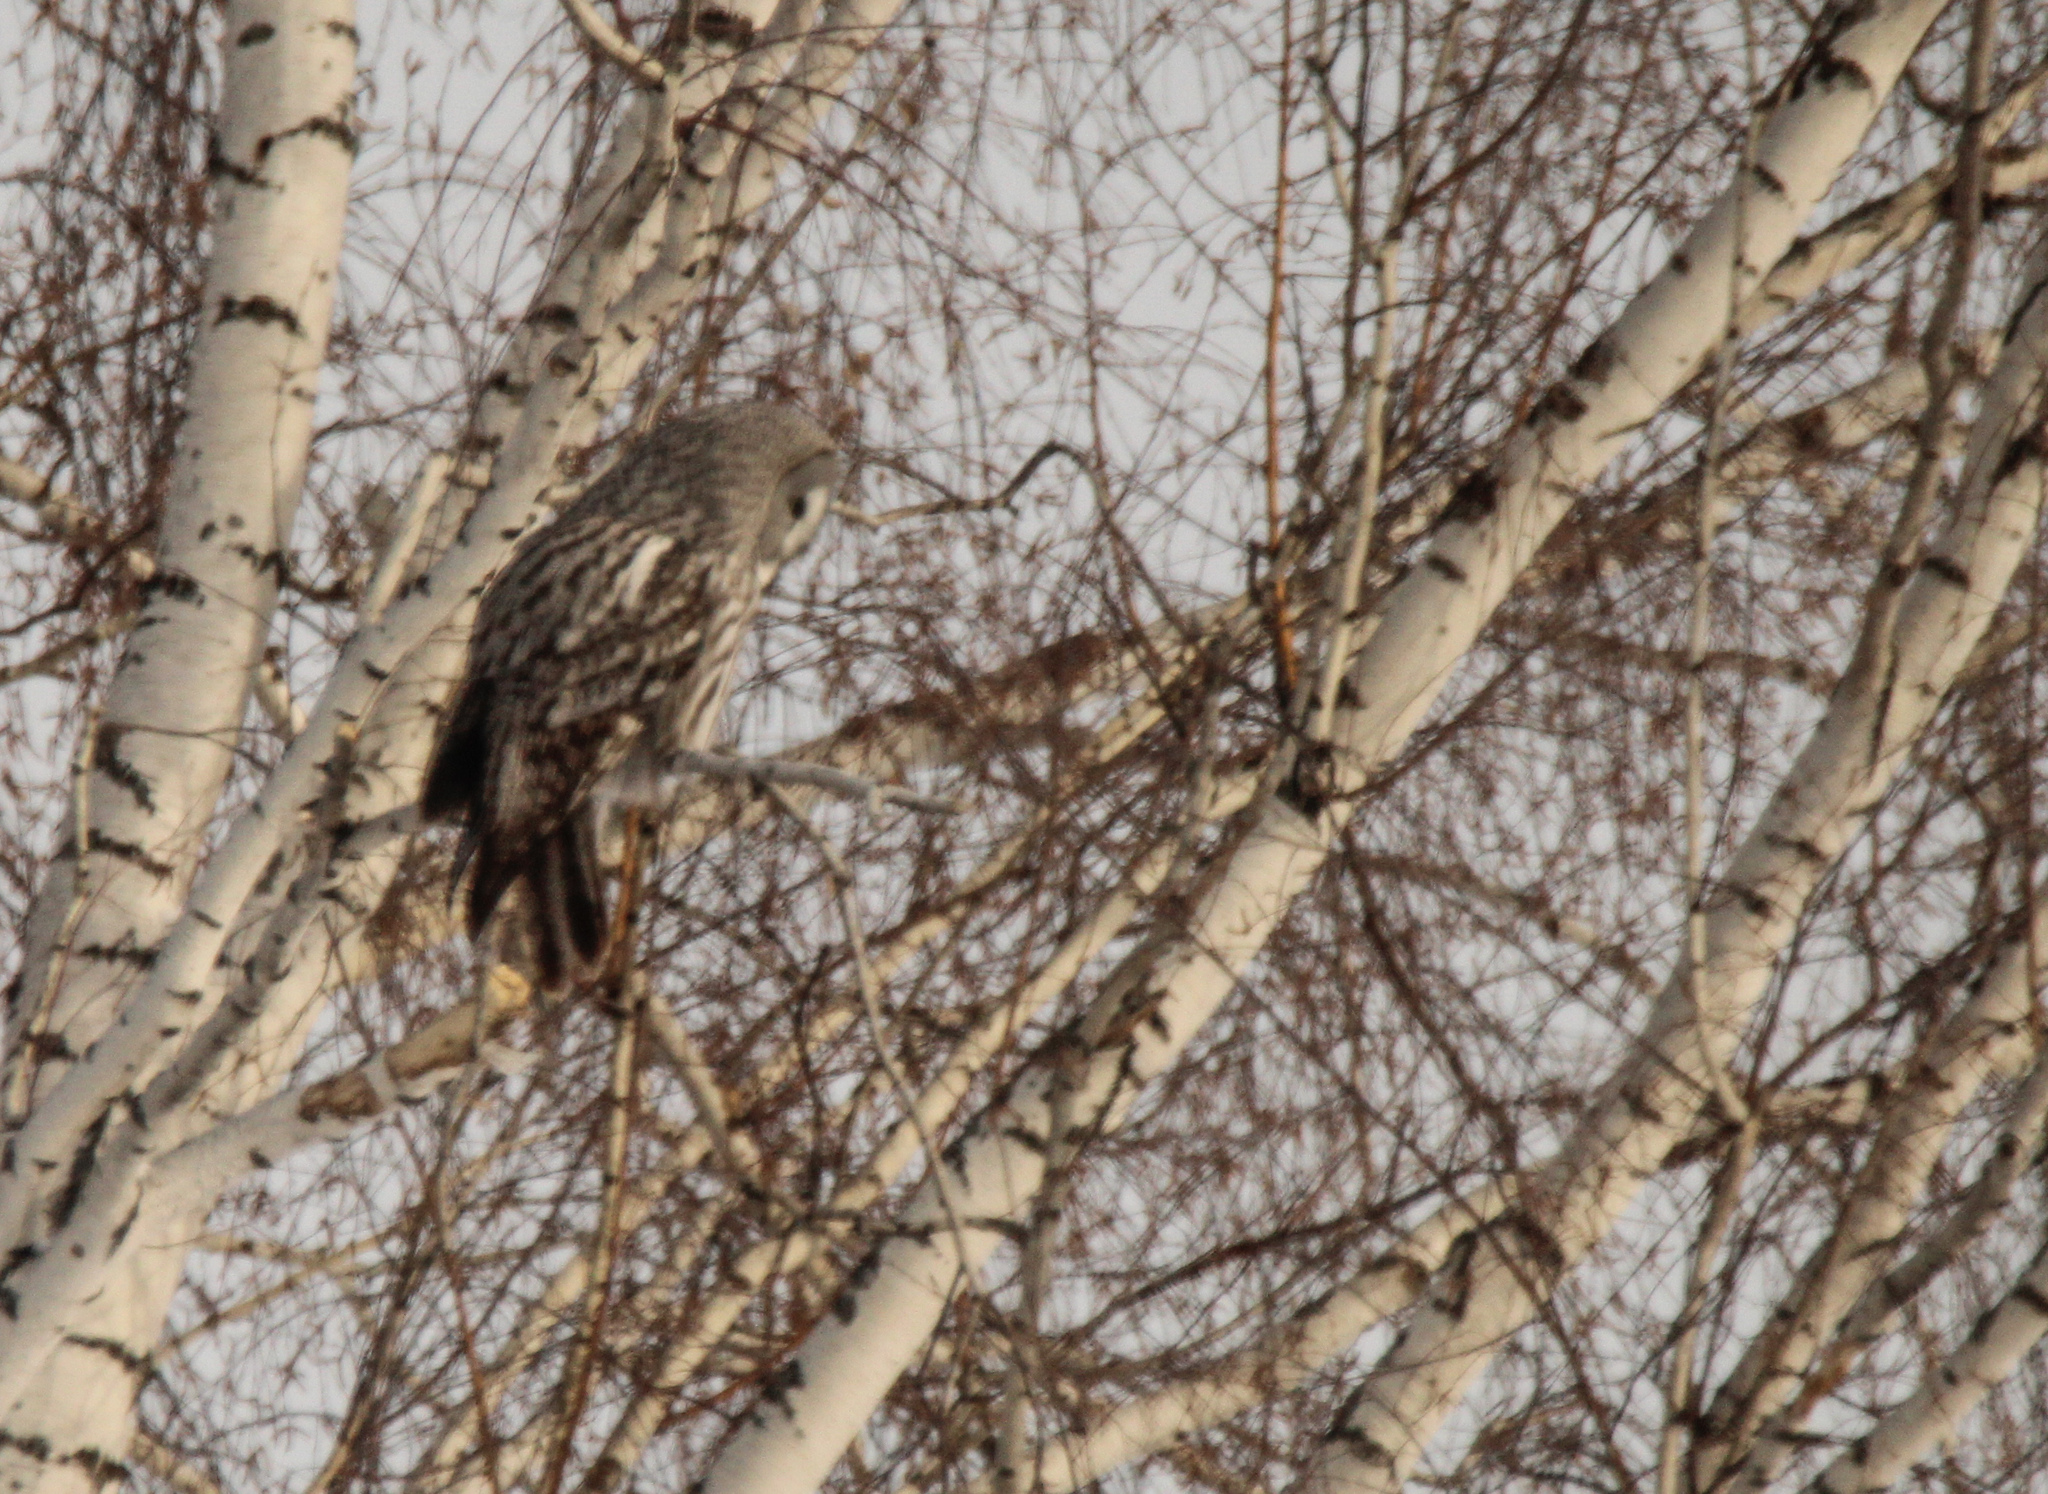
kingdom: Animalia
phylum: Chordata
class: Aves
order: Strigiformes
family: Strigidae
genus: Strix
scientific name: Strix nebulosa
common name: Great grey owl
